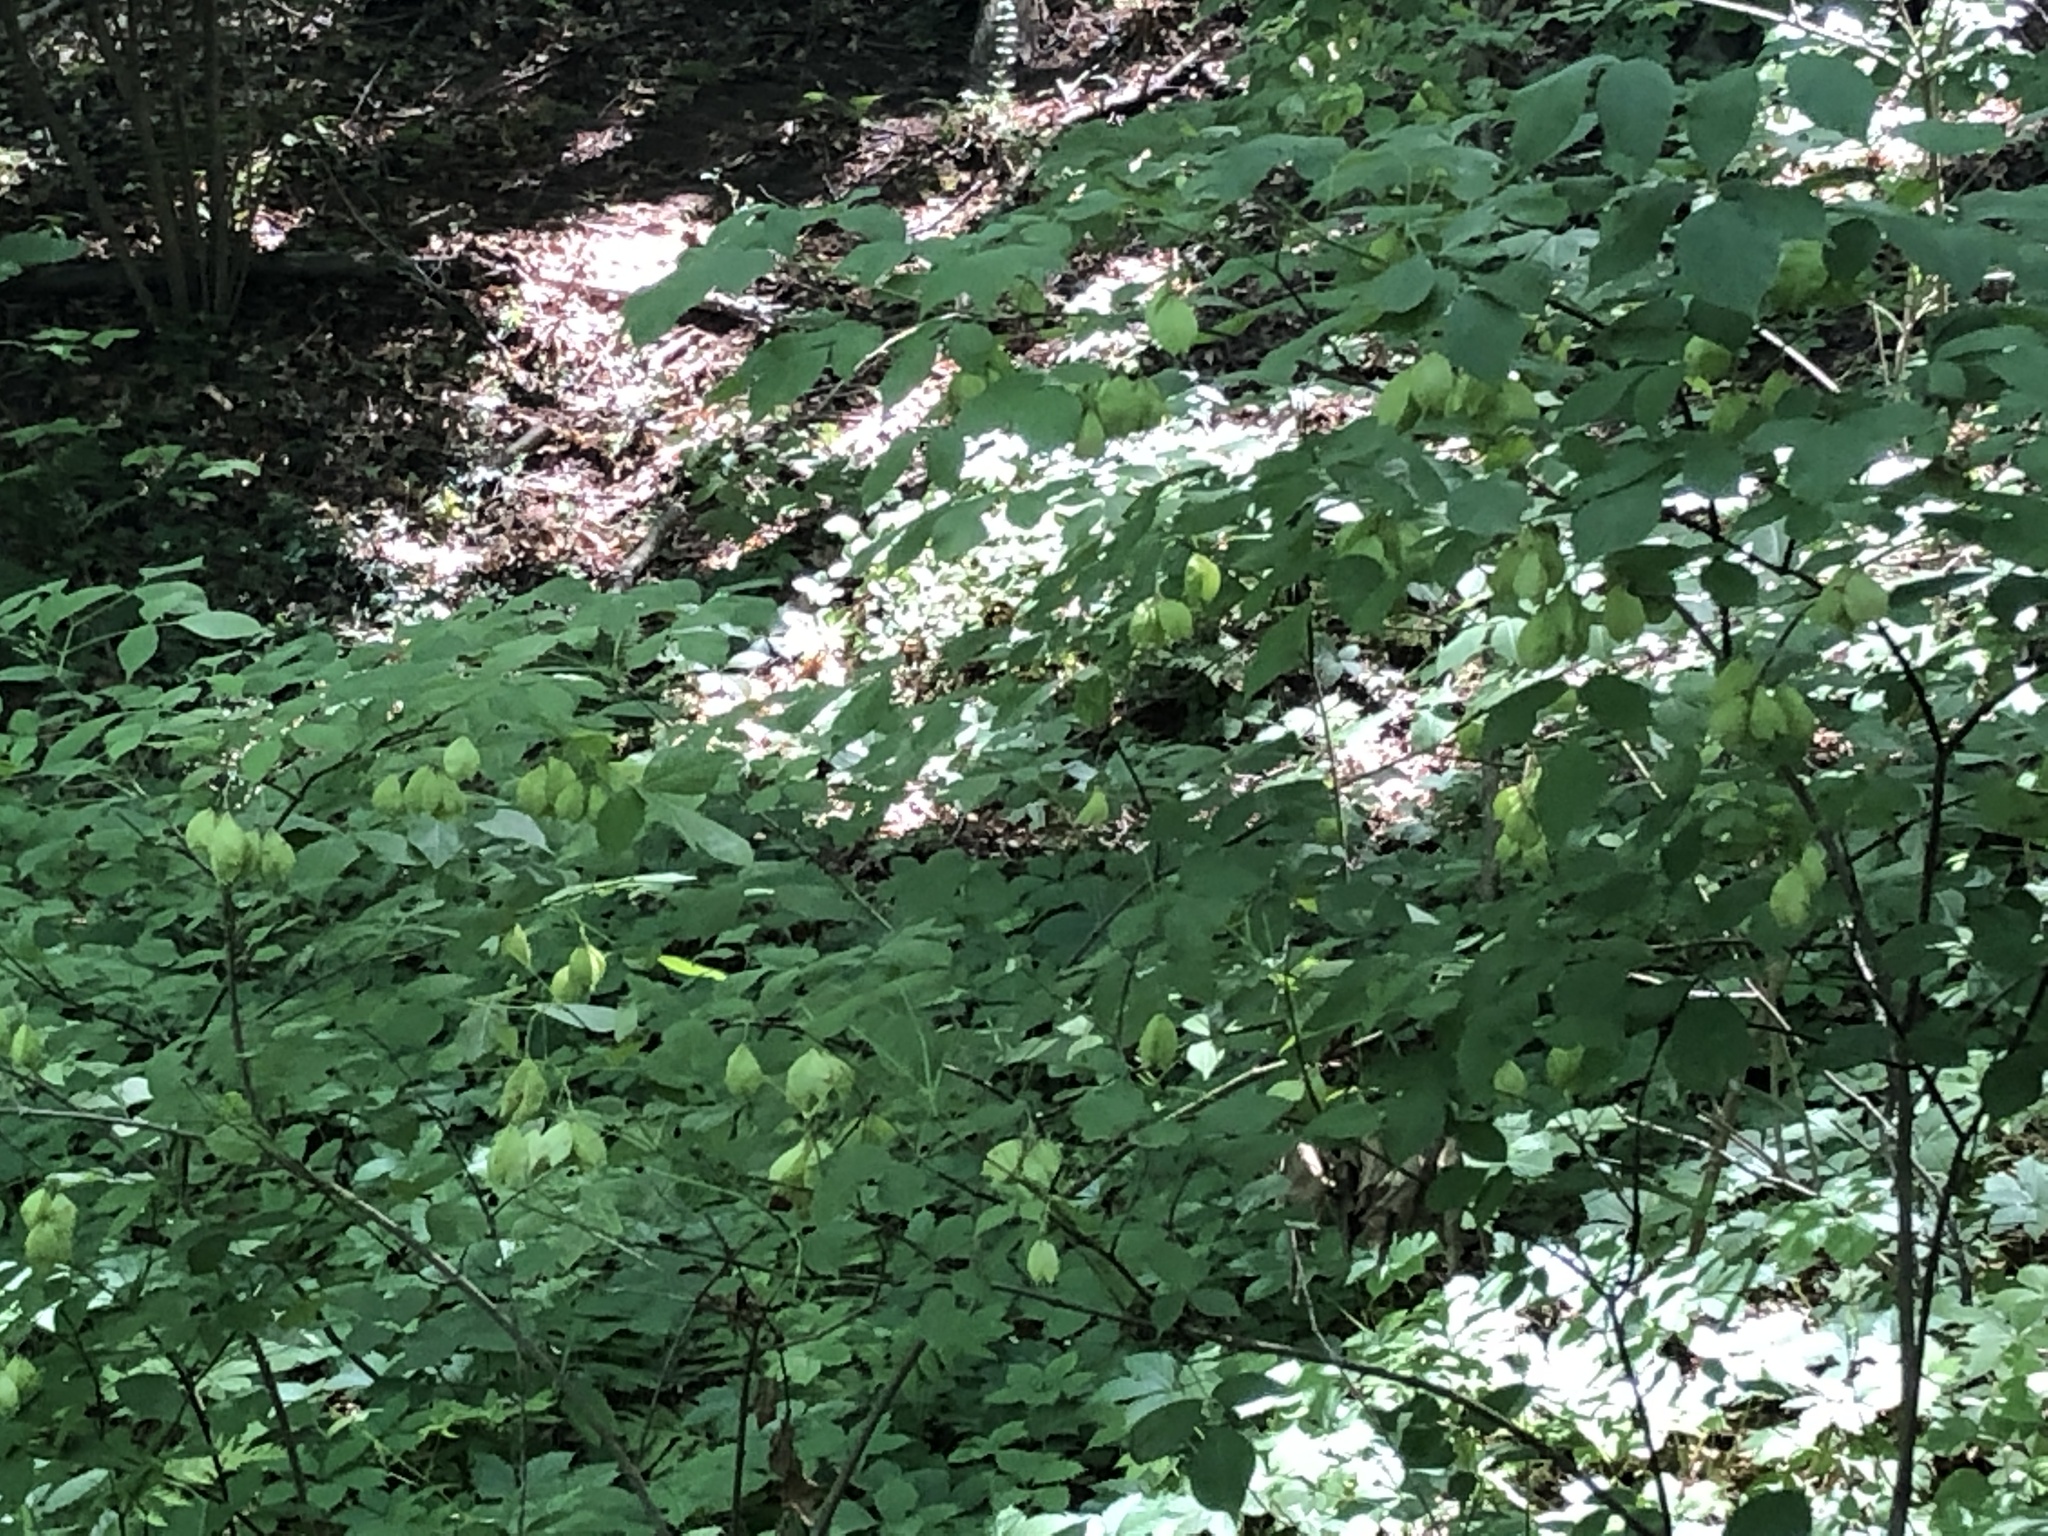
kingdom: Plantae
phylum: Tracheophyta
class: Magnoliopsida
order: Crossosomatales
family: Staphyleaceae
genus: Staphylea
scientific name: Staphylea trifolia
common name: American bladdernut
